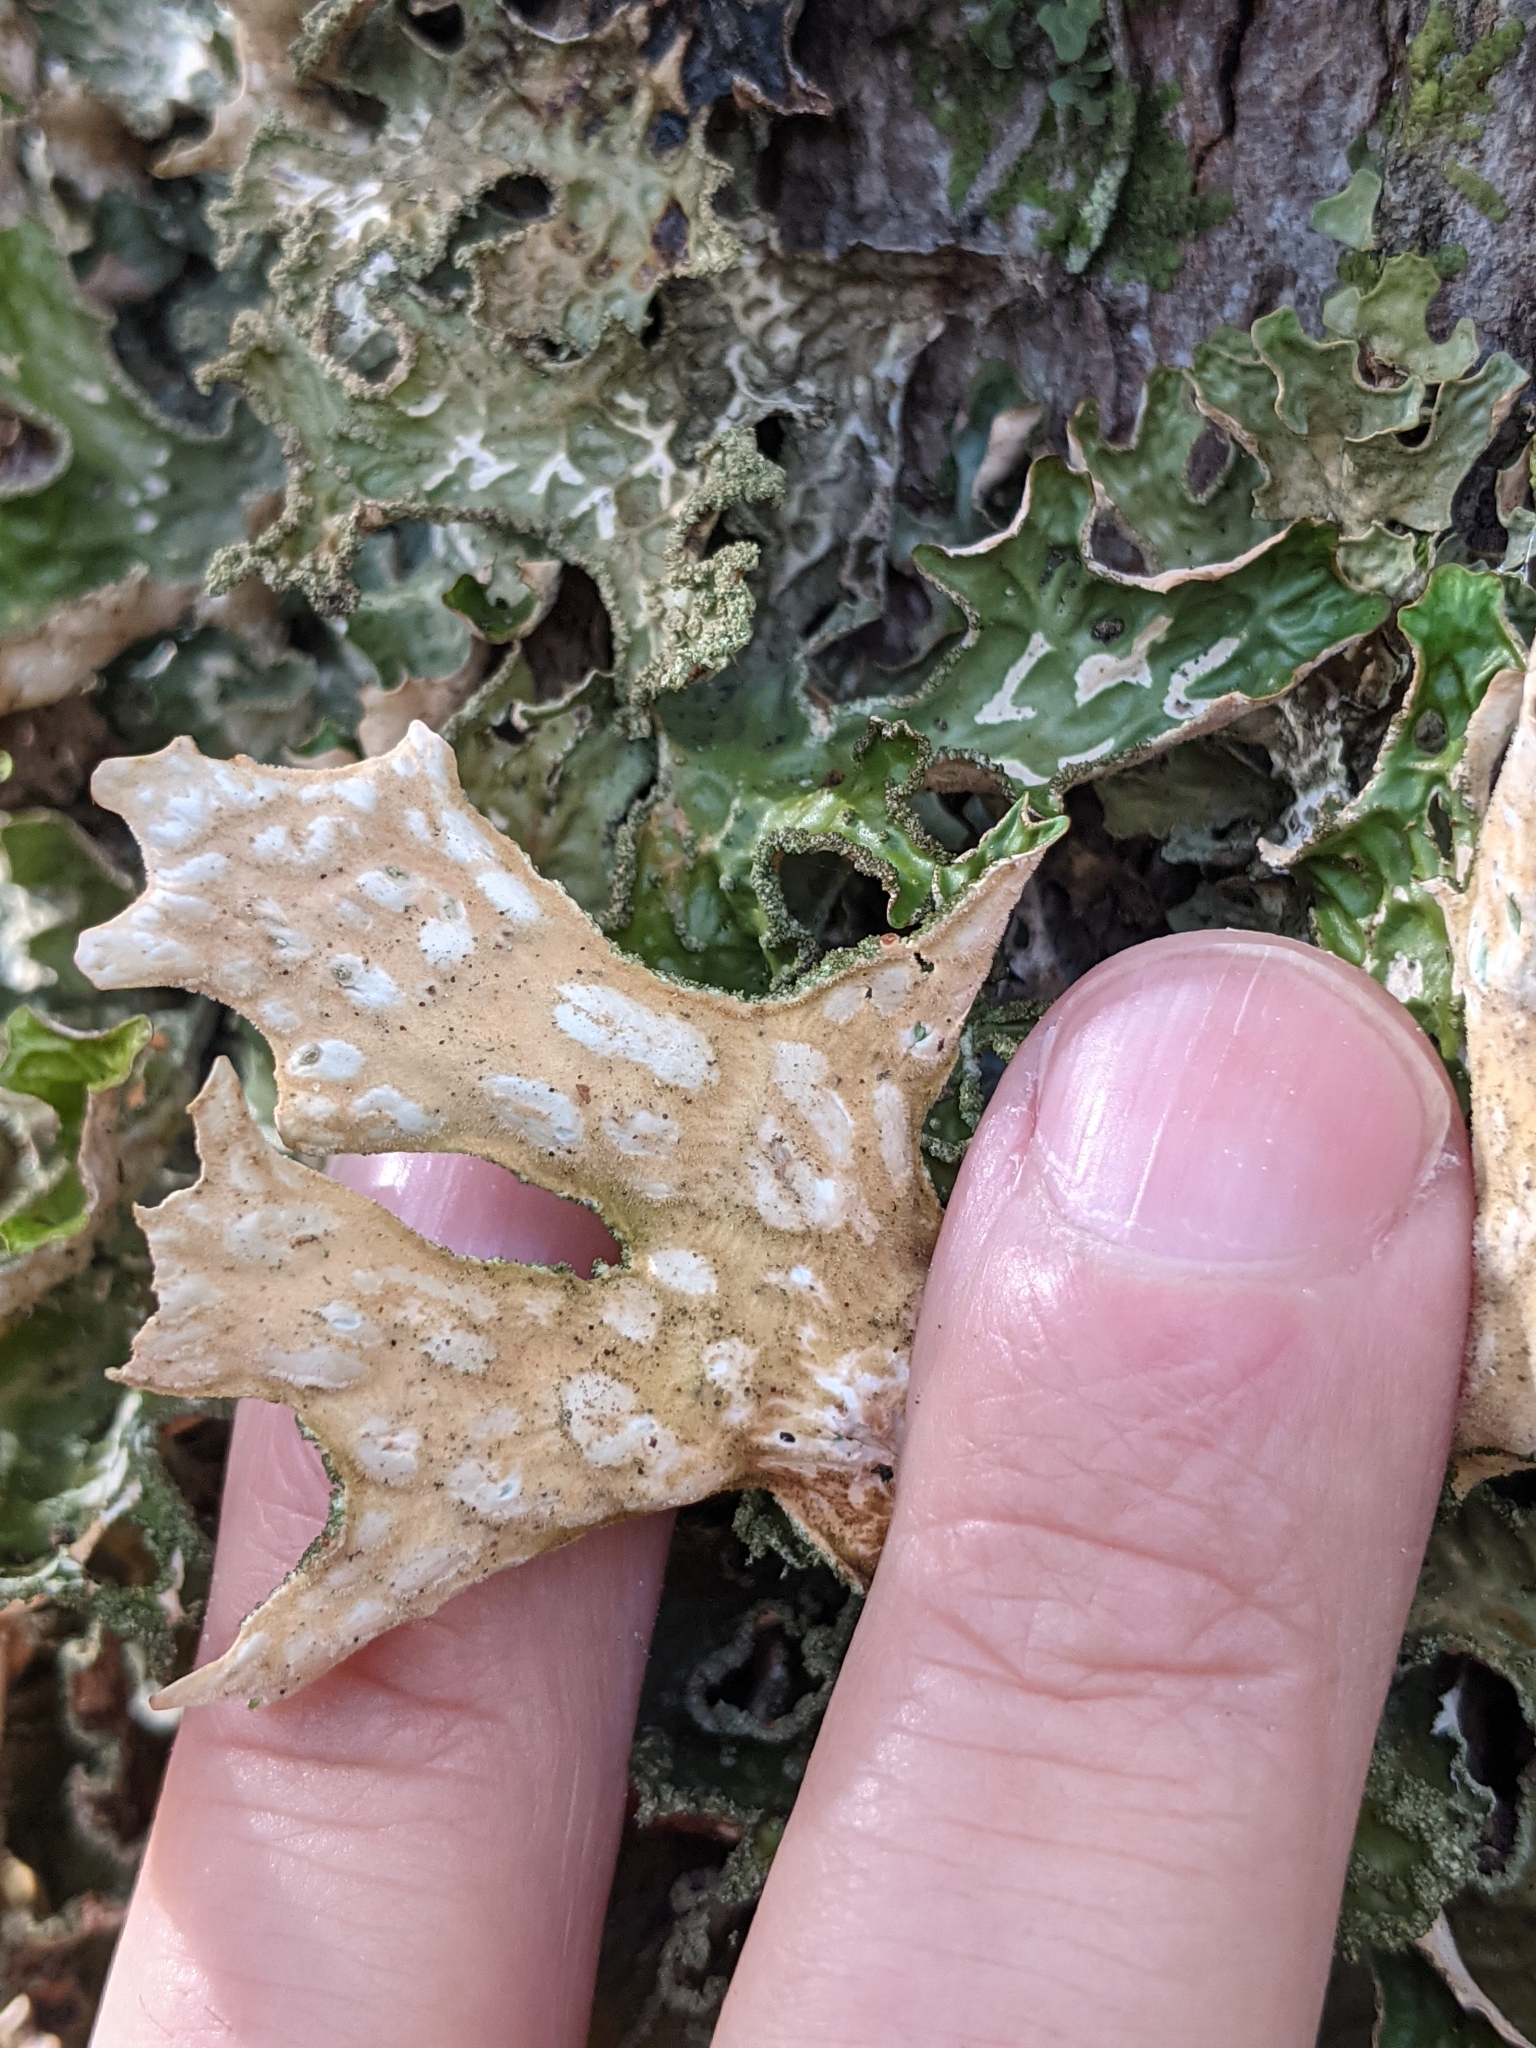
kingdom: Fungi
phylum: Ascomycota
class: Lecanoromycetes
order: Peltigerales
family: Lobariaceae
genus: Lobaria
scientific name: Lobaria pulmonaria
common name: Lungwort
